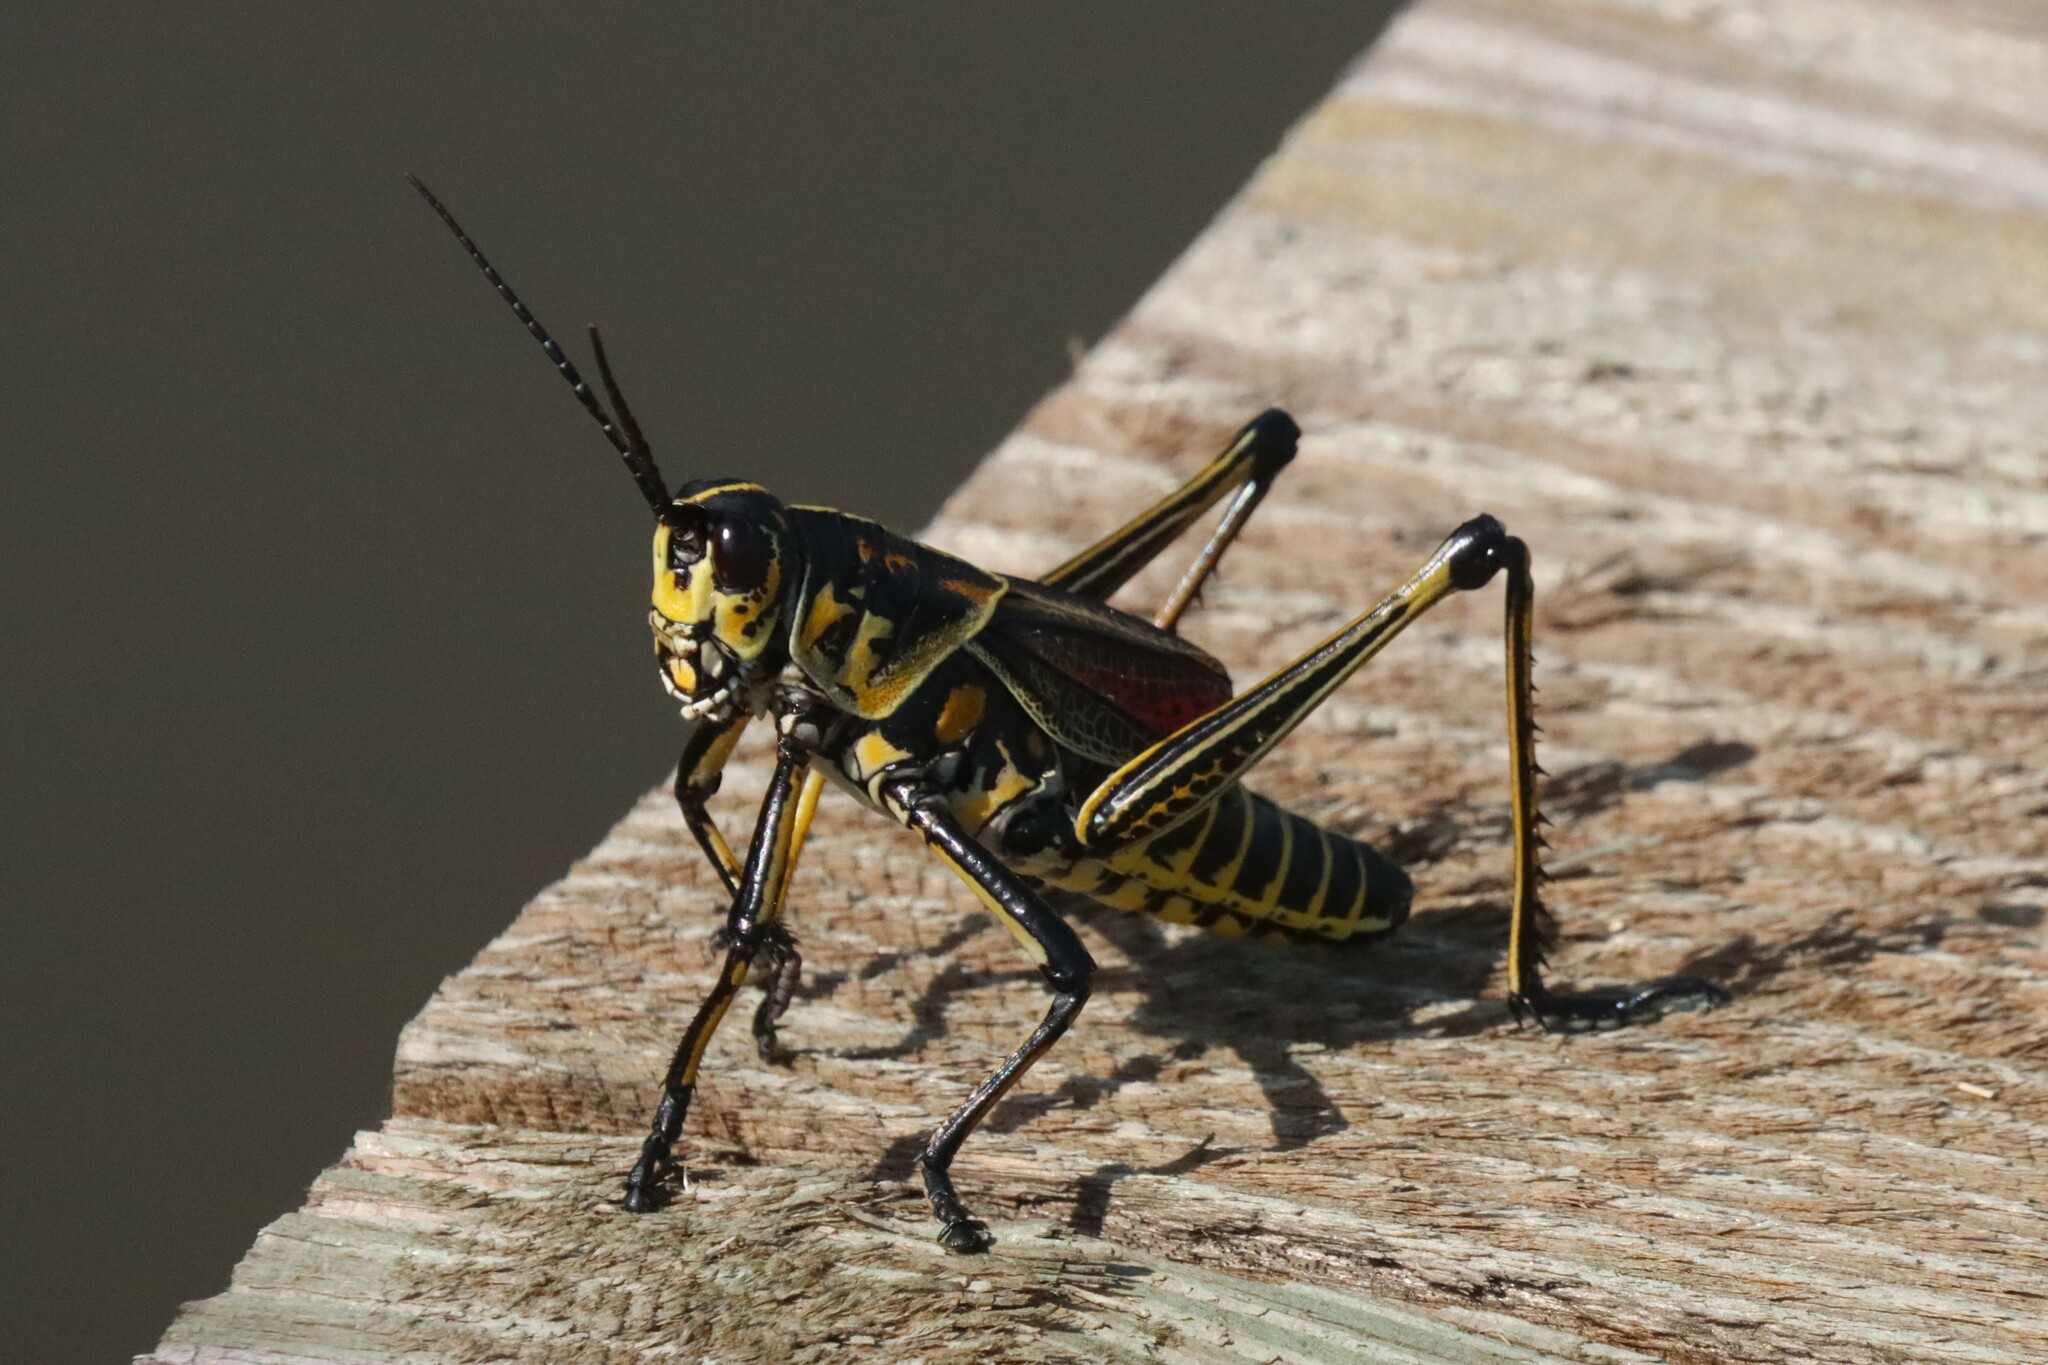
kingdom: Animalia
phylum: Arthropoda
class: Insecta
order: Orthoptera
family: Romaleidae
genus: Romalea
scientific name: Romalea microptera
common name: Eastern lubber grasshopper
